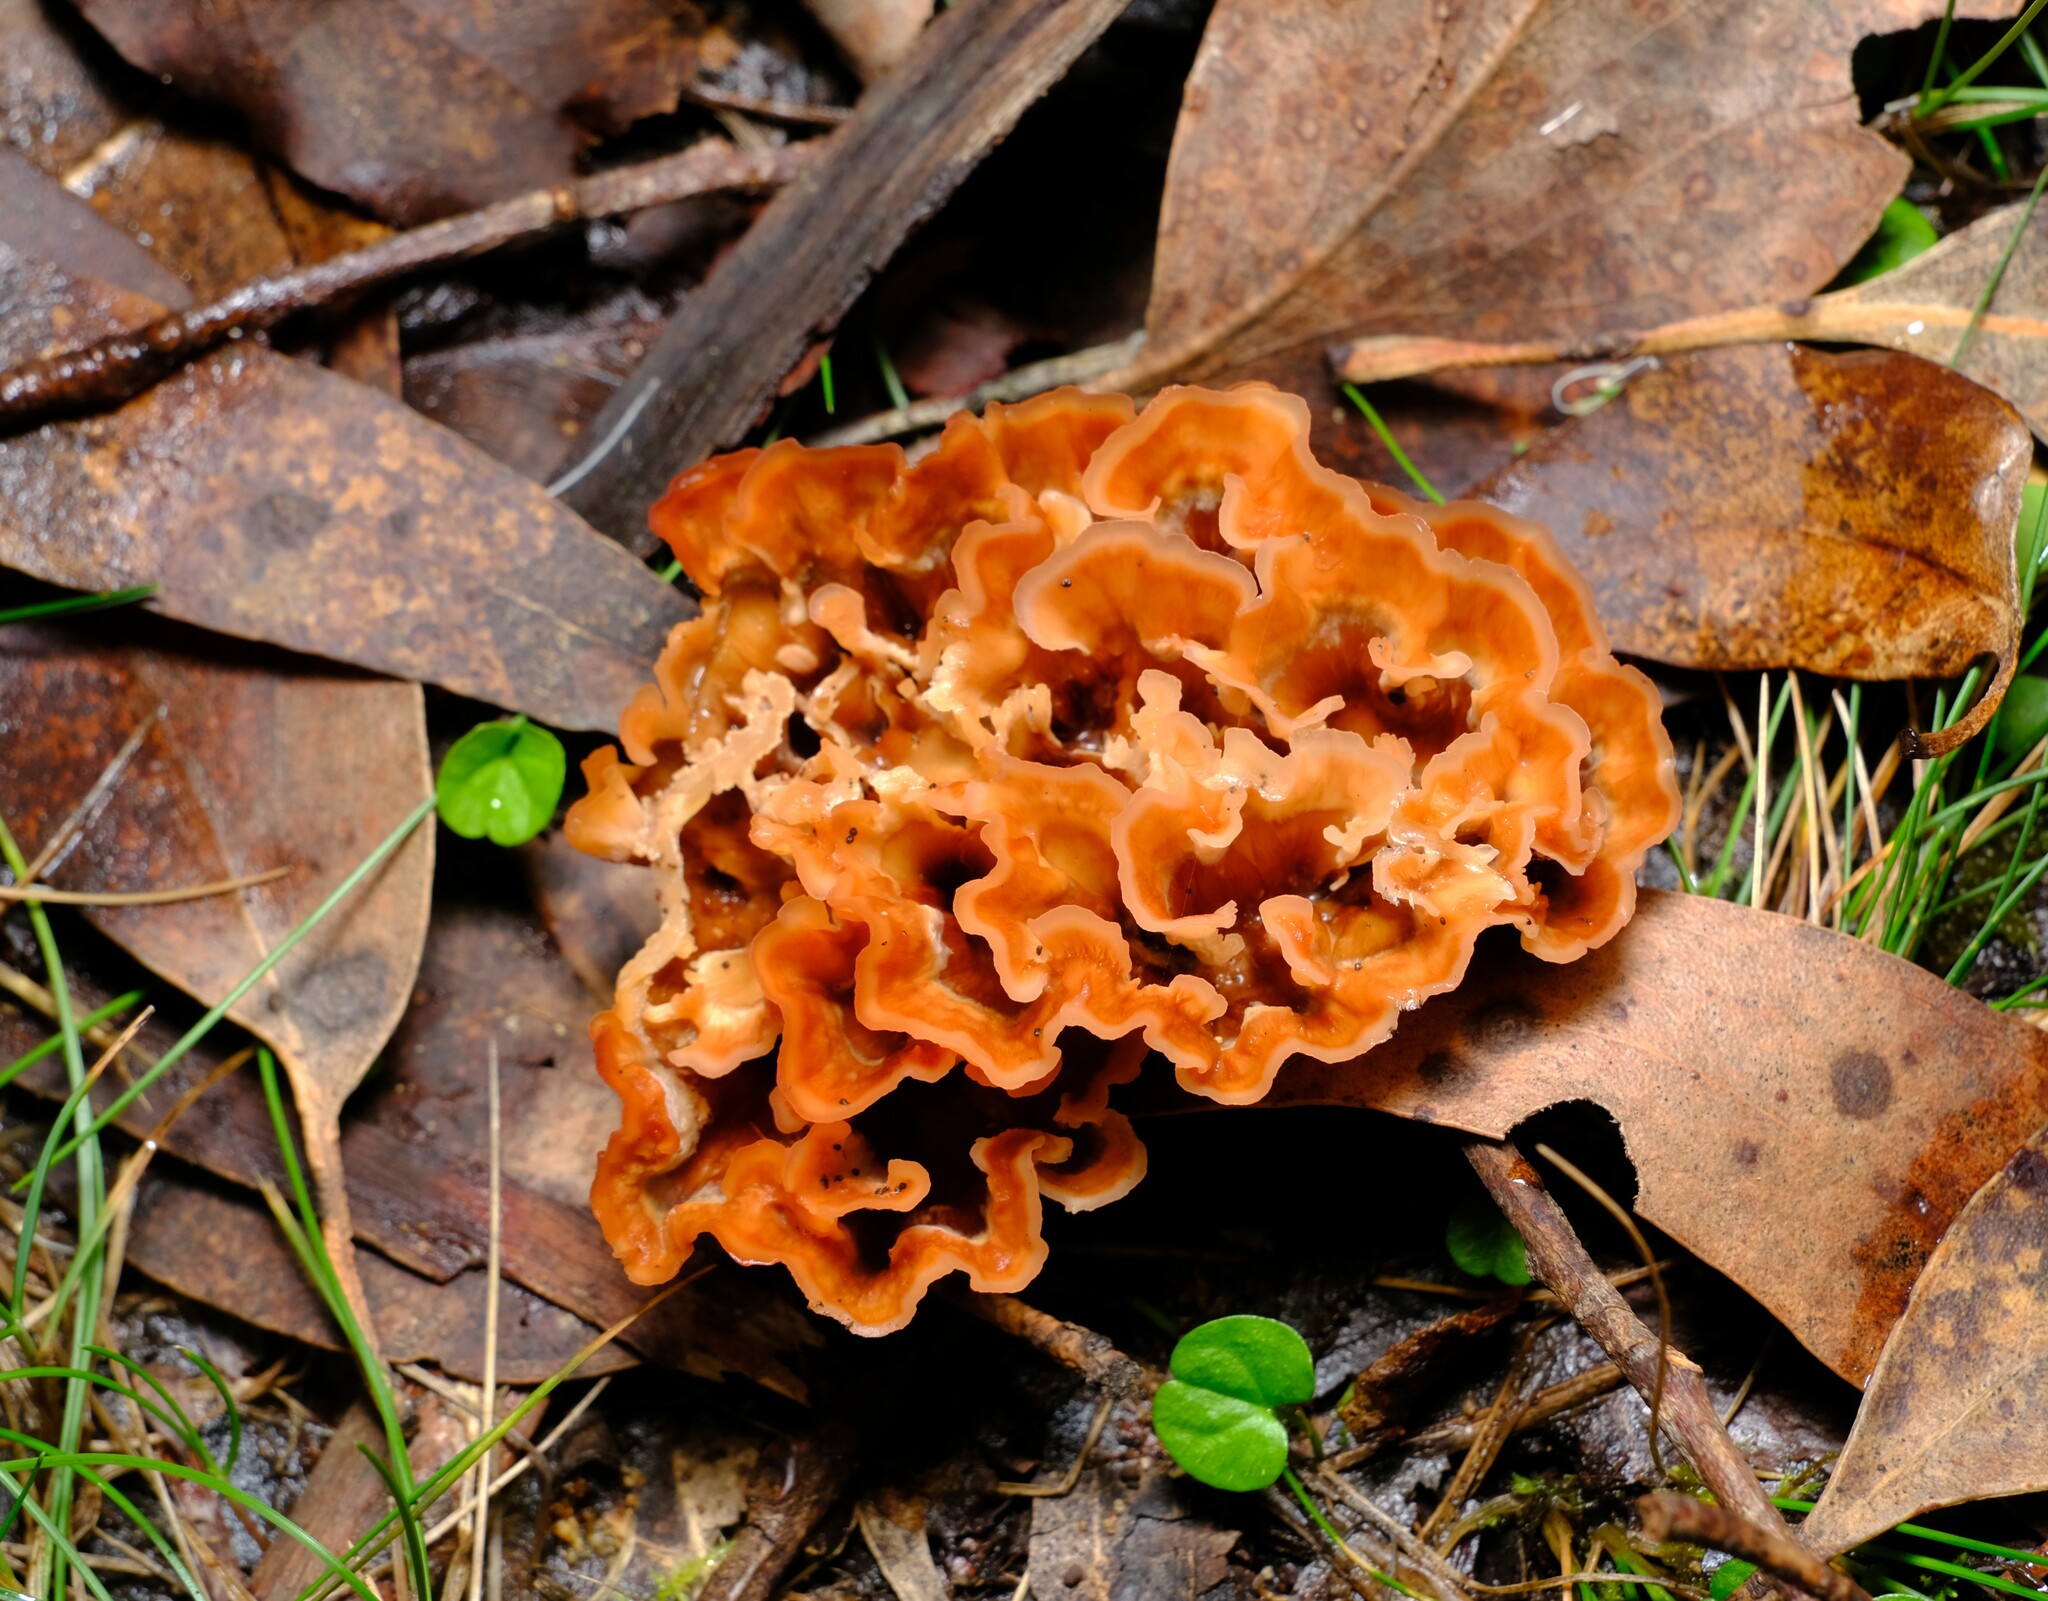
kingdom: Fungi
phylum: Basidiomycota
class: Agaricomycetes
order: Polyporales
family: Podoscyphaceae
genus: Podoscypha
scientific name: Podoscypha petalodes
